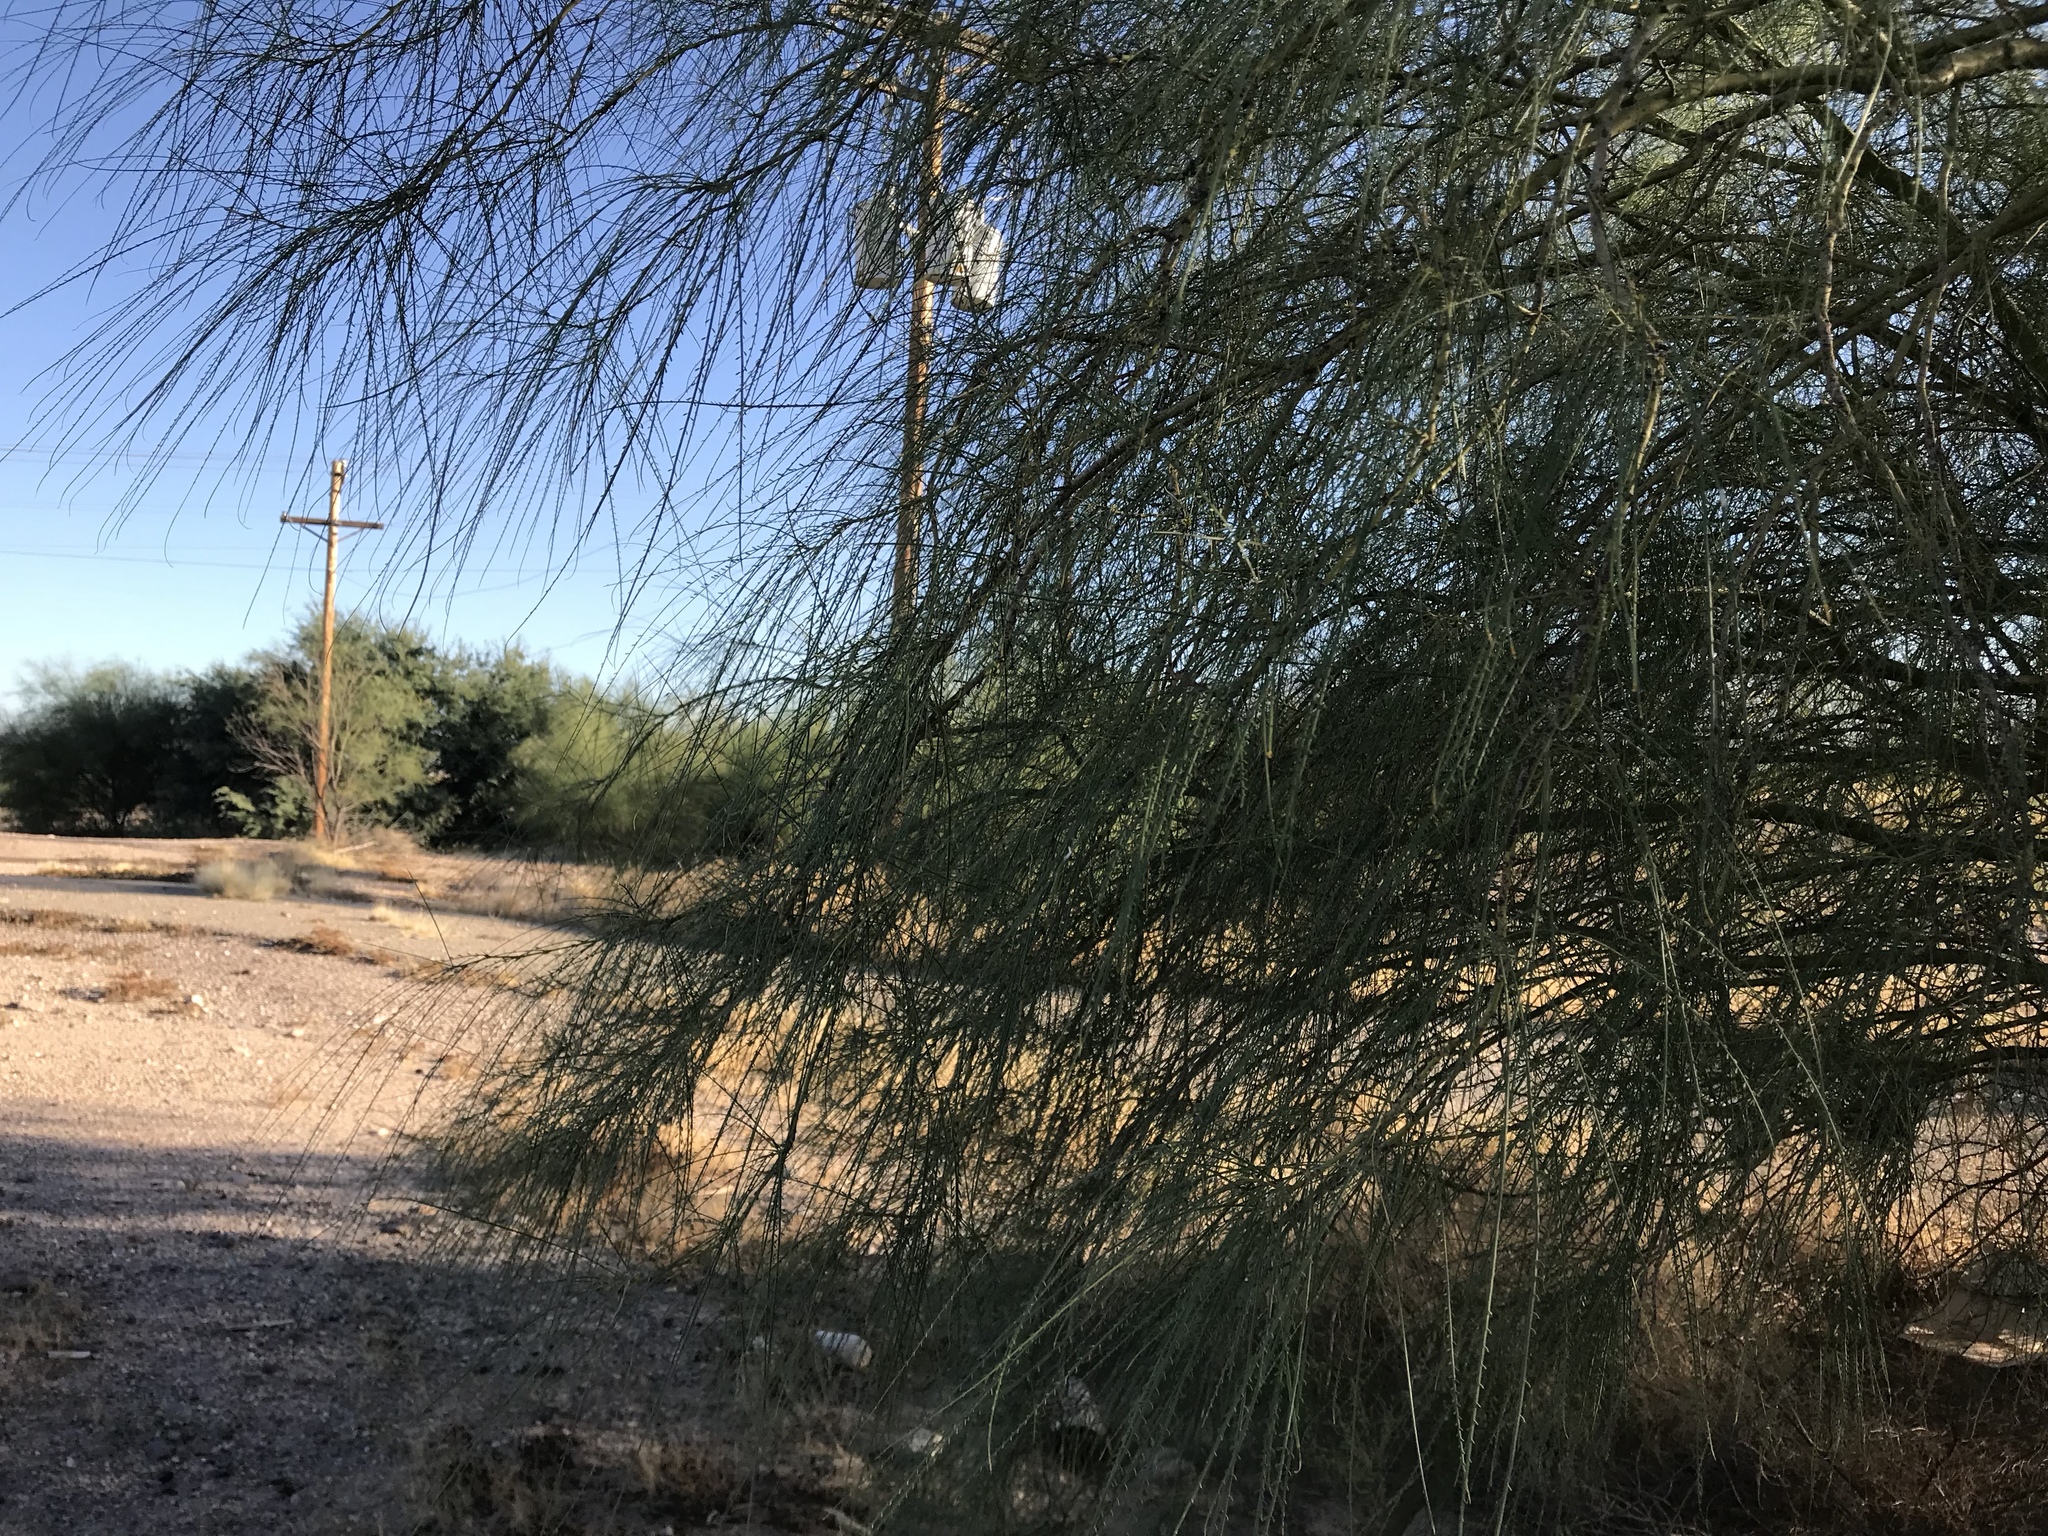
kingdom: Plantae
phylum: Tracheophyta
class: Magnoliopsida
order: Fabales
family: Fabaceae
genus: Parkinsonia
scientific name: Parkinsonia aculeata
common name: Jerusalem thorn
